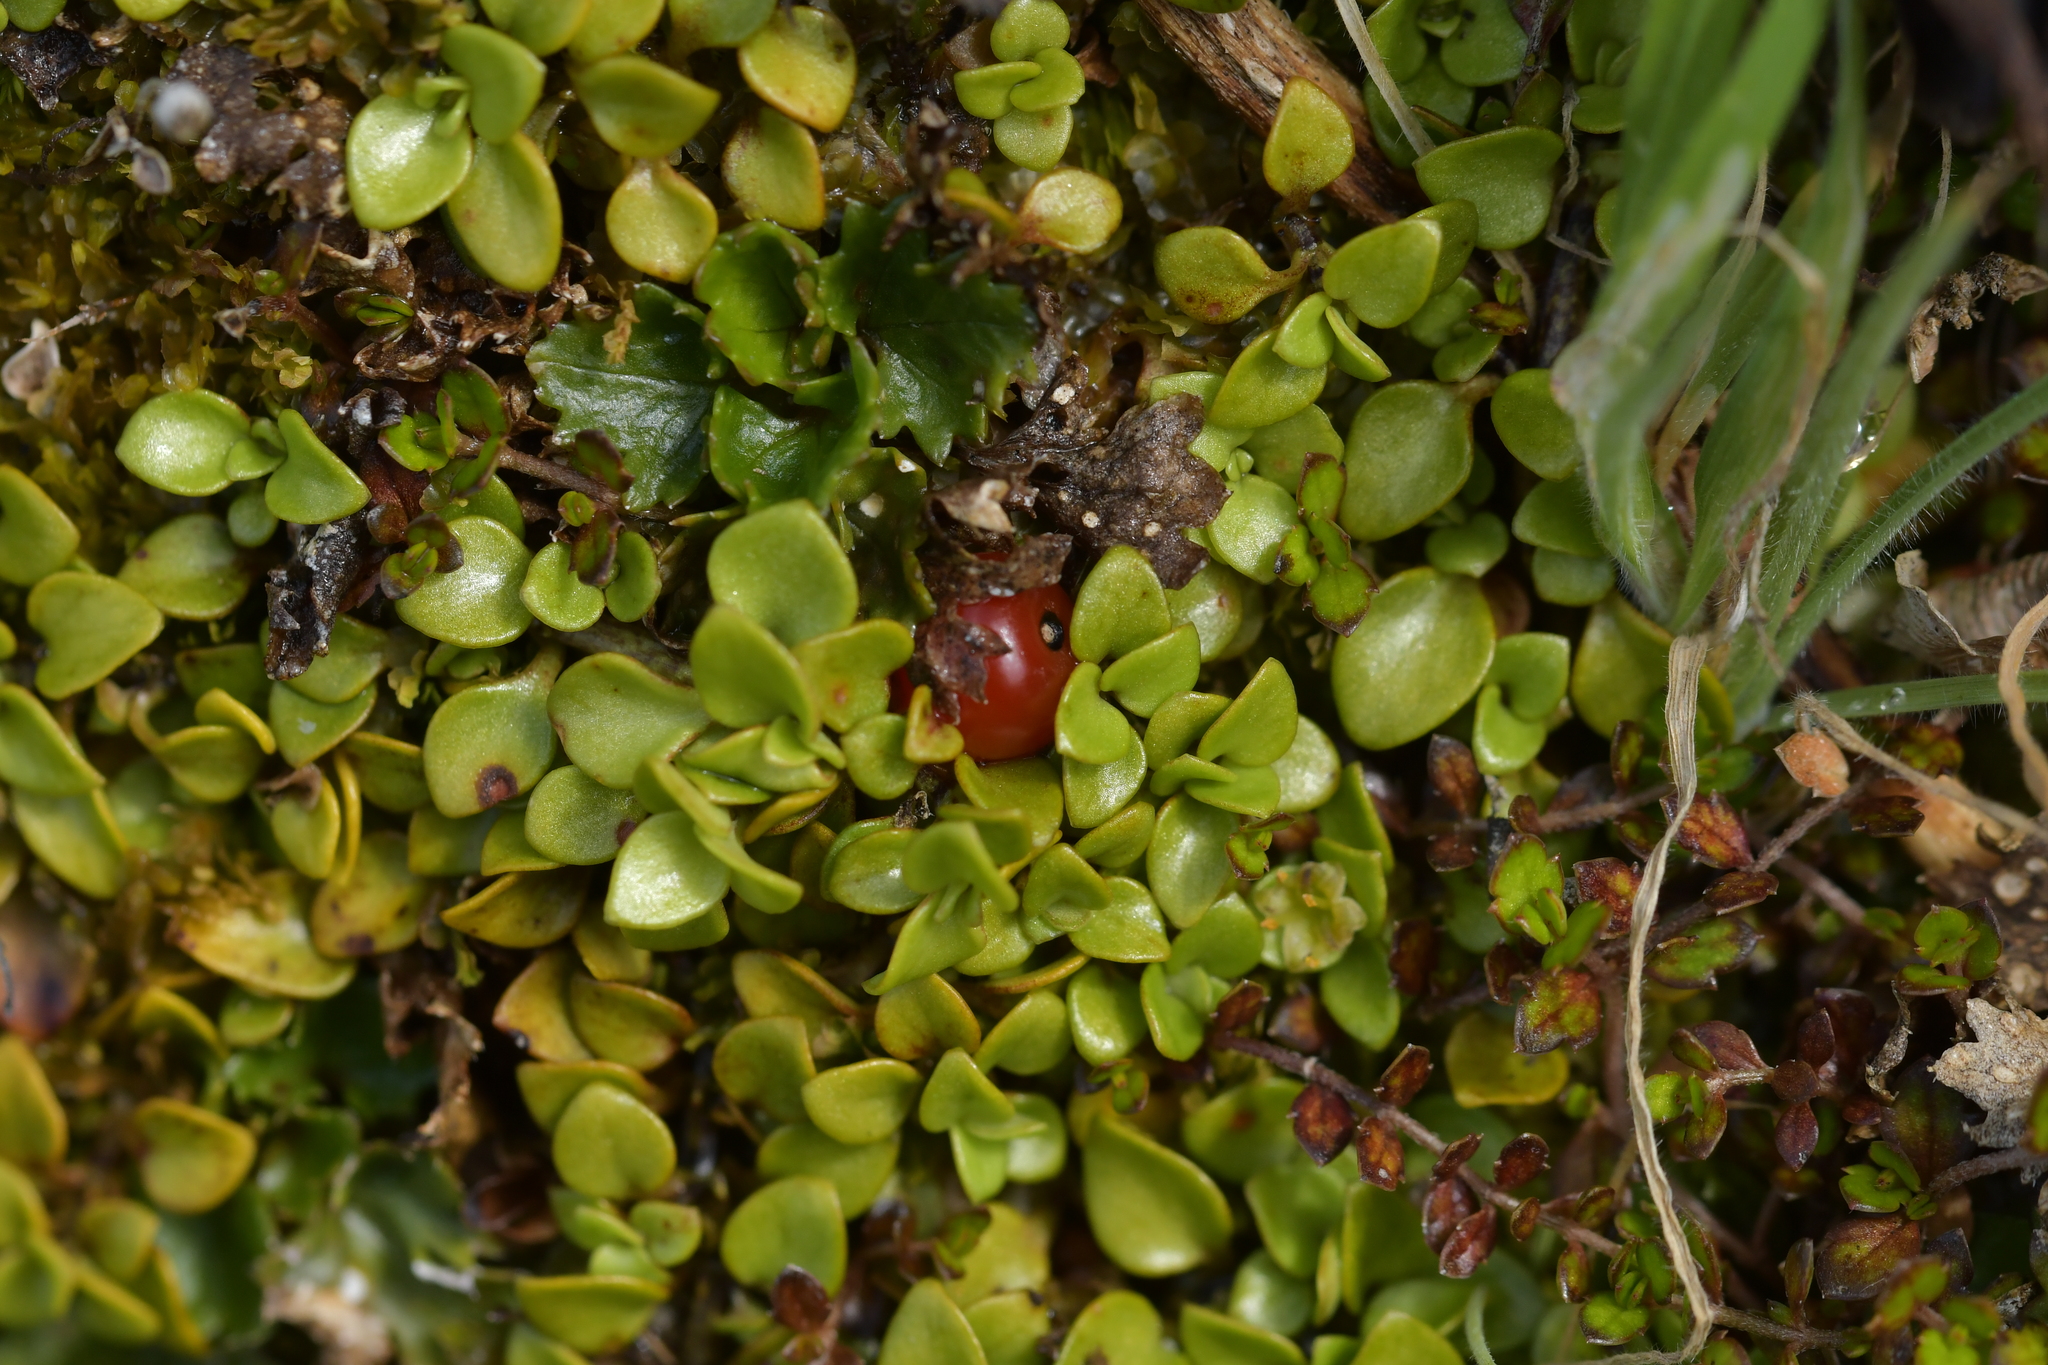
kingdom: Plantae
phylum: Tracheophyta
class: Magnoliopsida
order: Gentianales
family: Rubiaceae
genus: Nertera
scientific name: Nertera granadensis
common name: Beadplant
